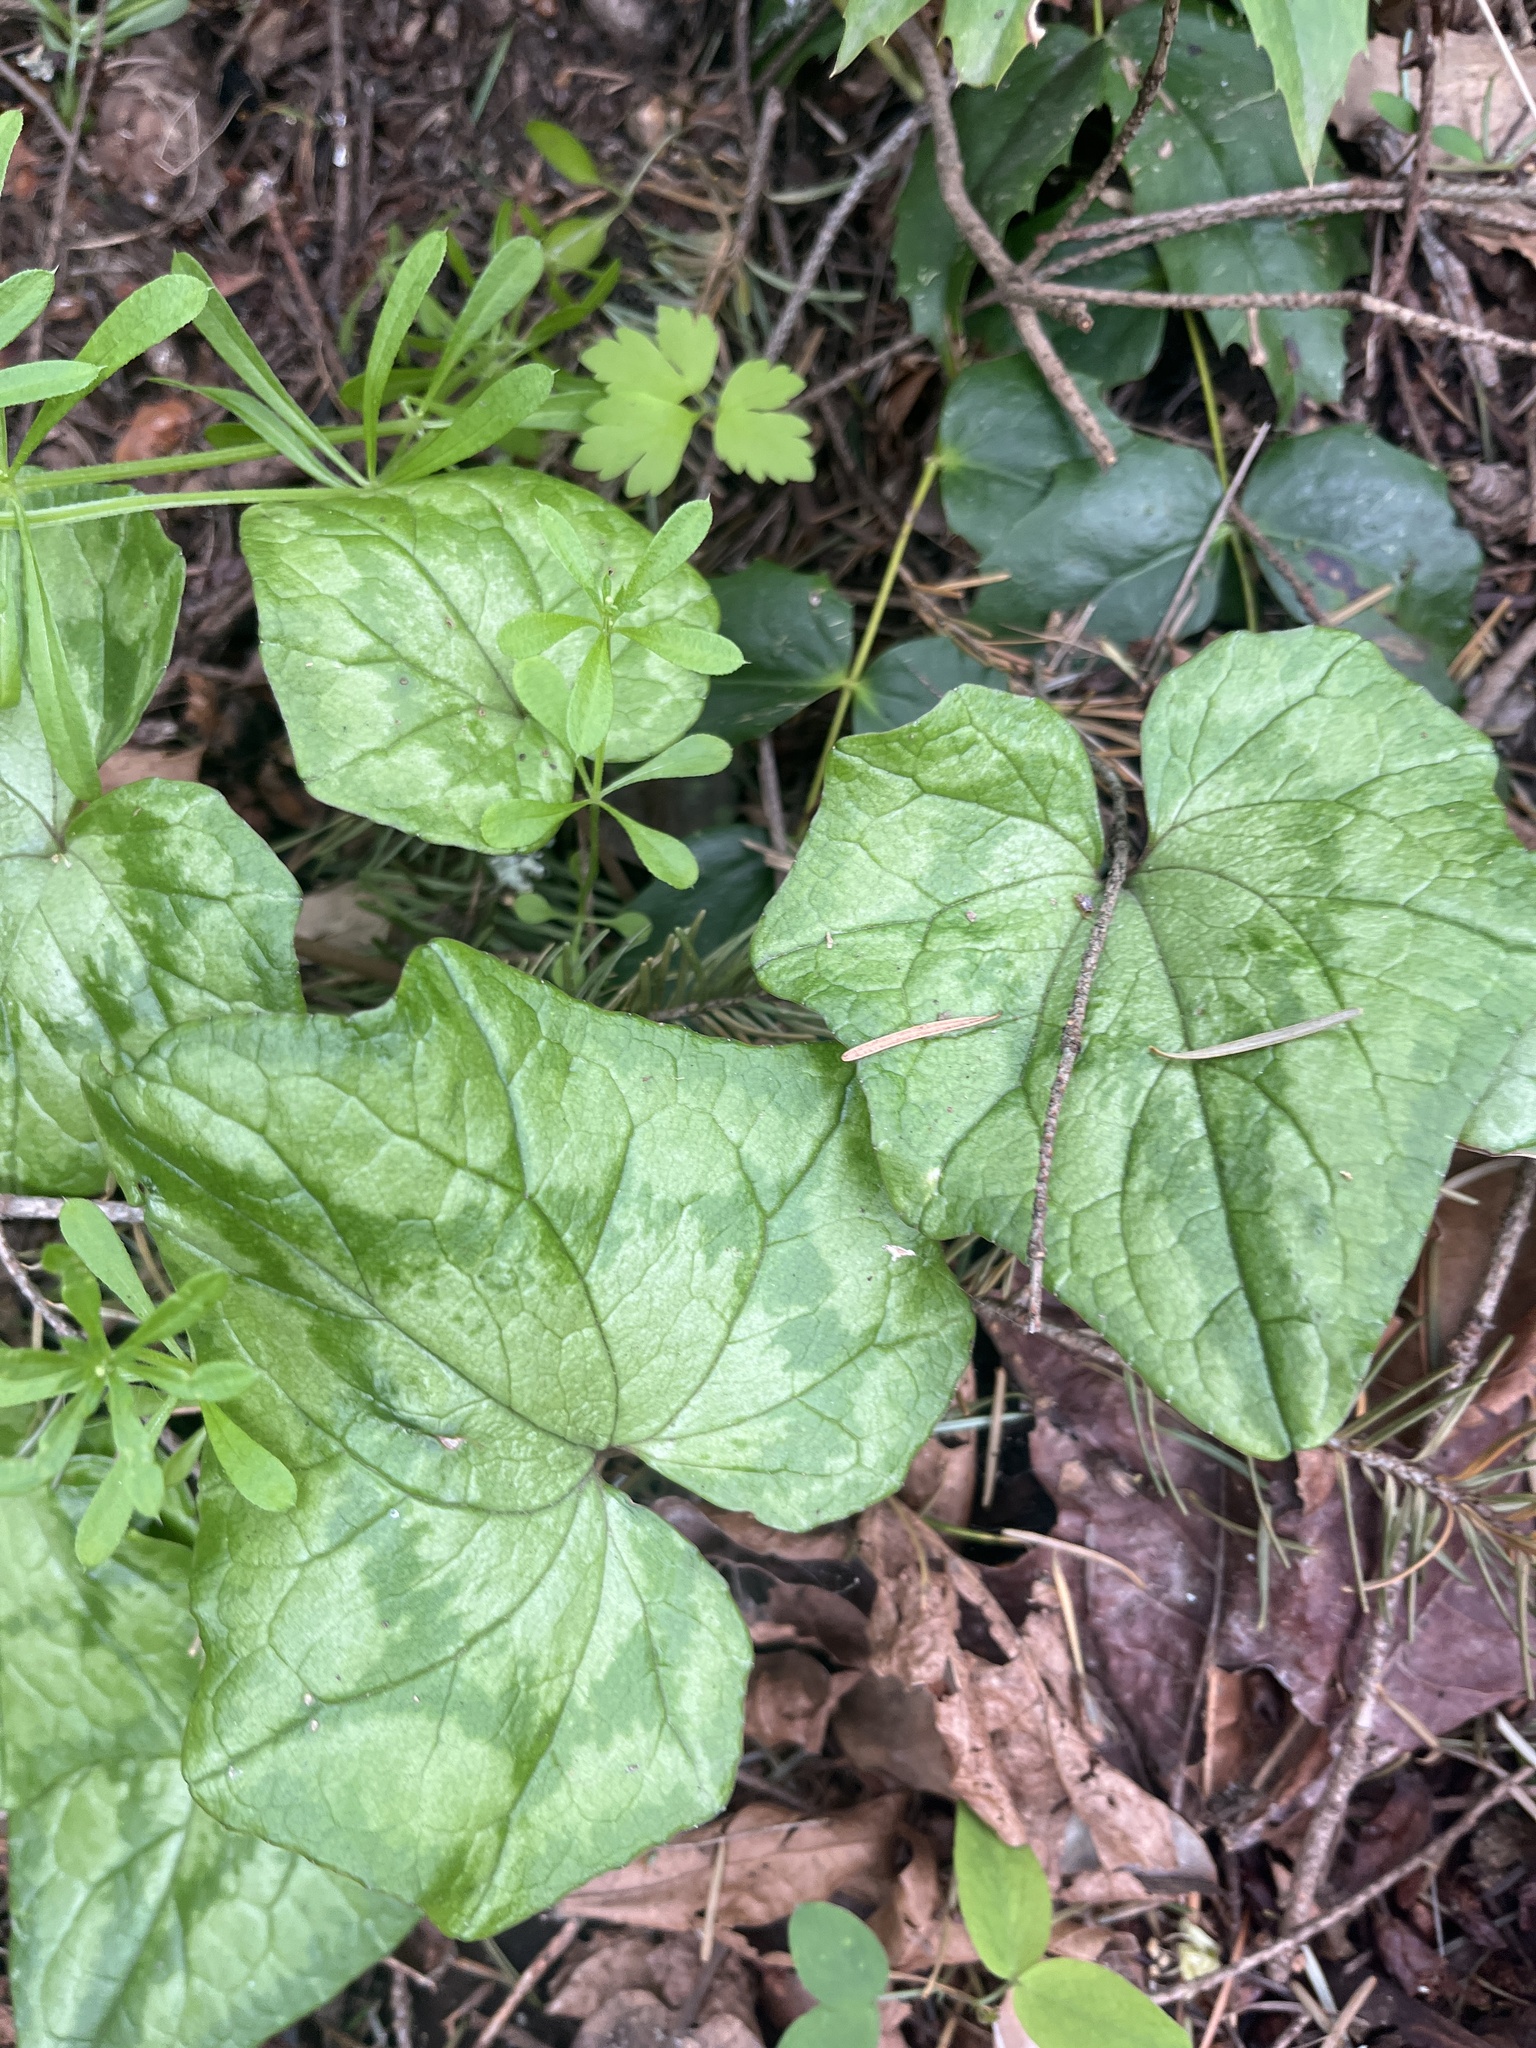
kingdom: Plantae
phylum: Tracheophyta
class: Magnoliopsida
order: Ericales
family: Primulaceae
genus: Cyclamen
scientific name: Cyclamen hederifolium
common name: Sowbread
